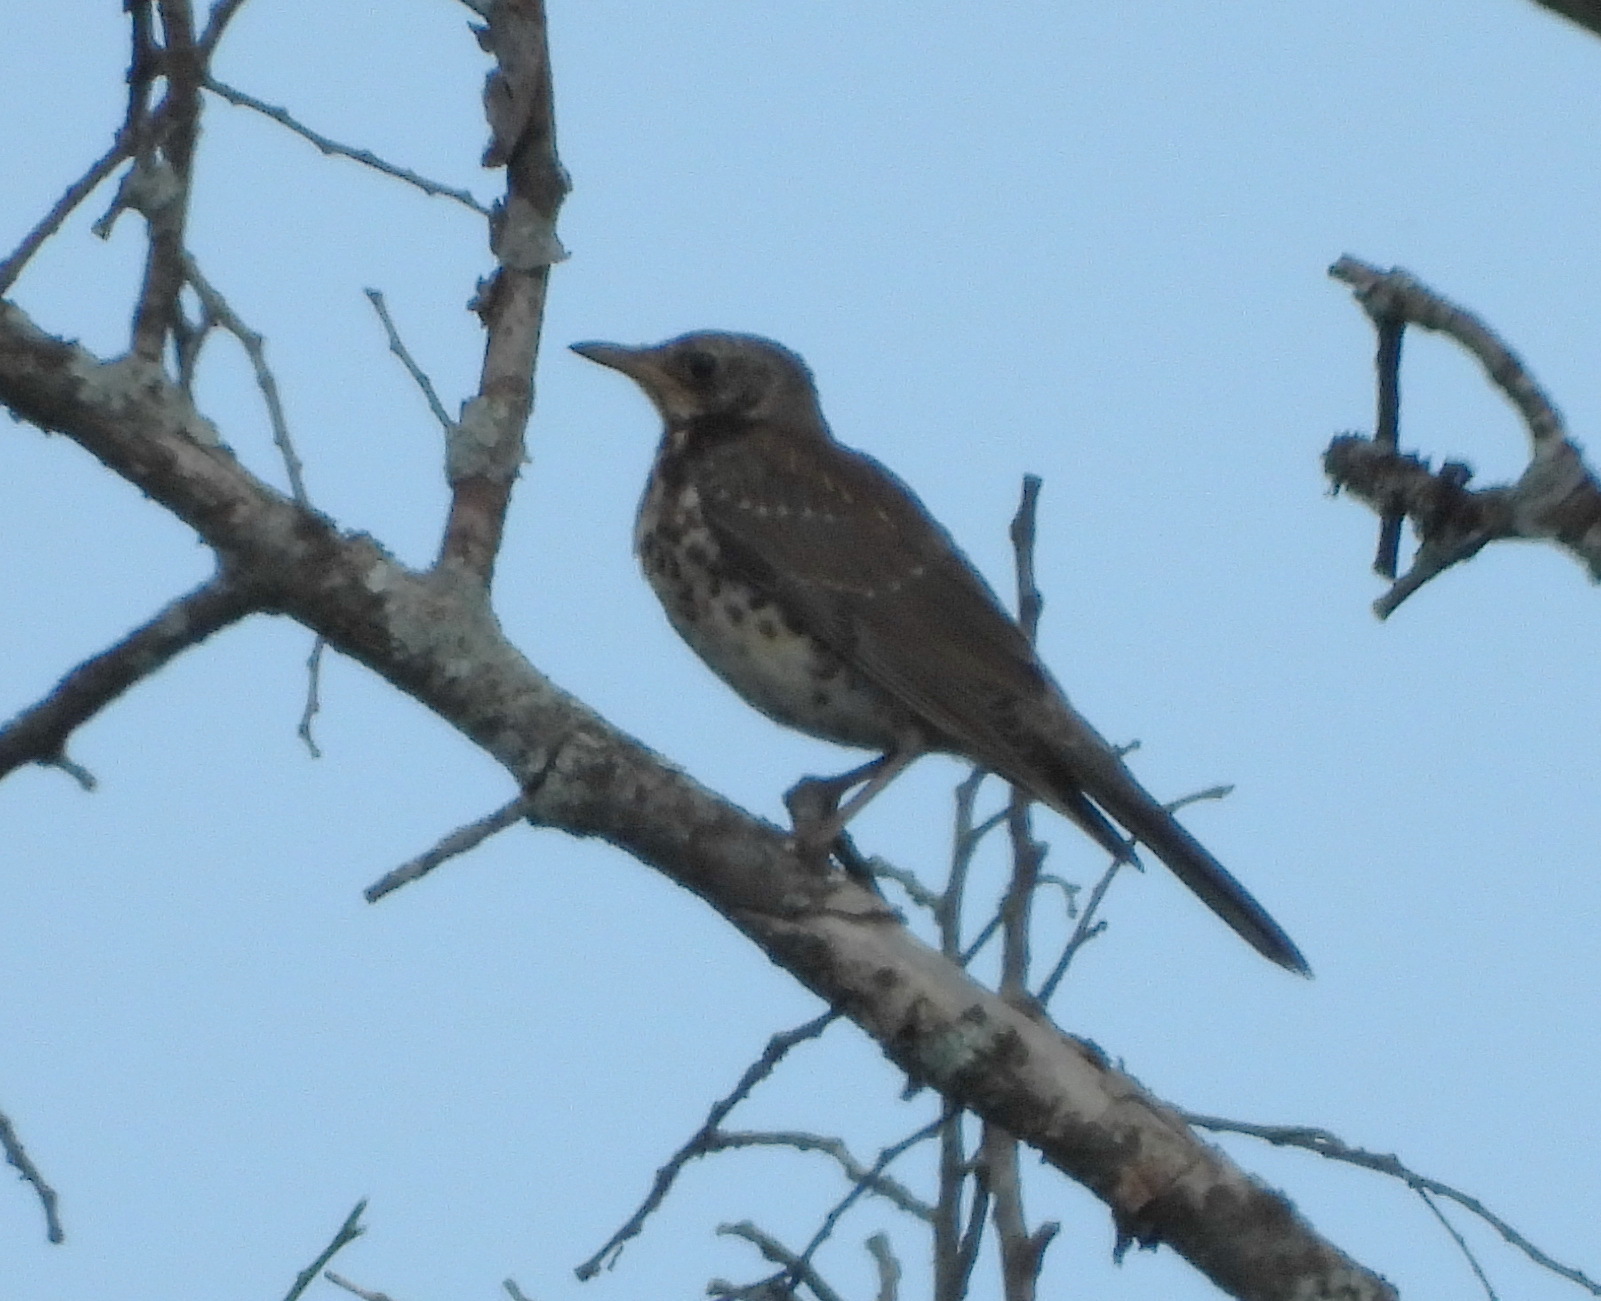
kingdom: Animalia
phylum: Chordata
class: Aves
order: Passeriformes
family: Turdidae
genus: Turdus
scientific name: Turdus pilaris
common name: Fieldfare
